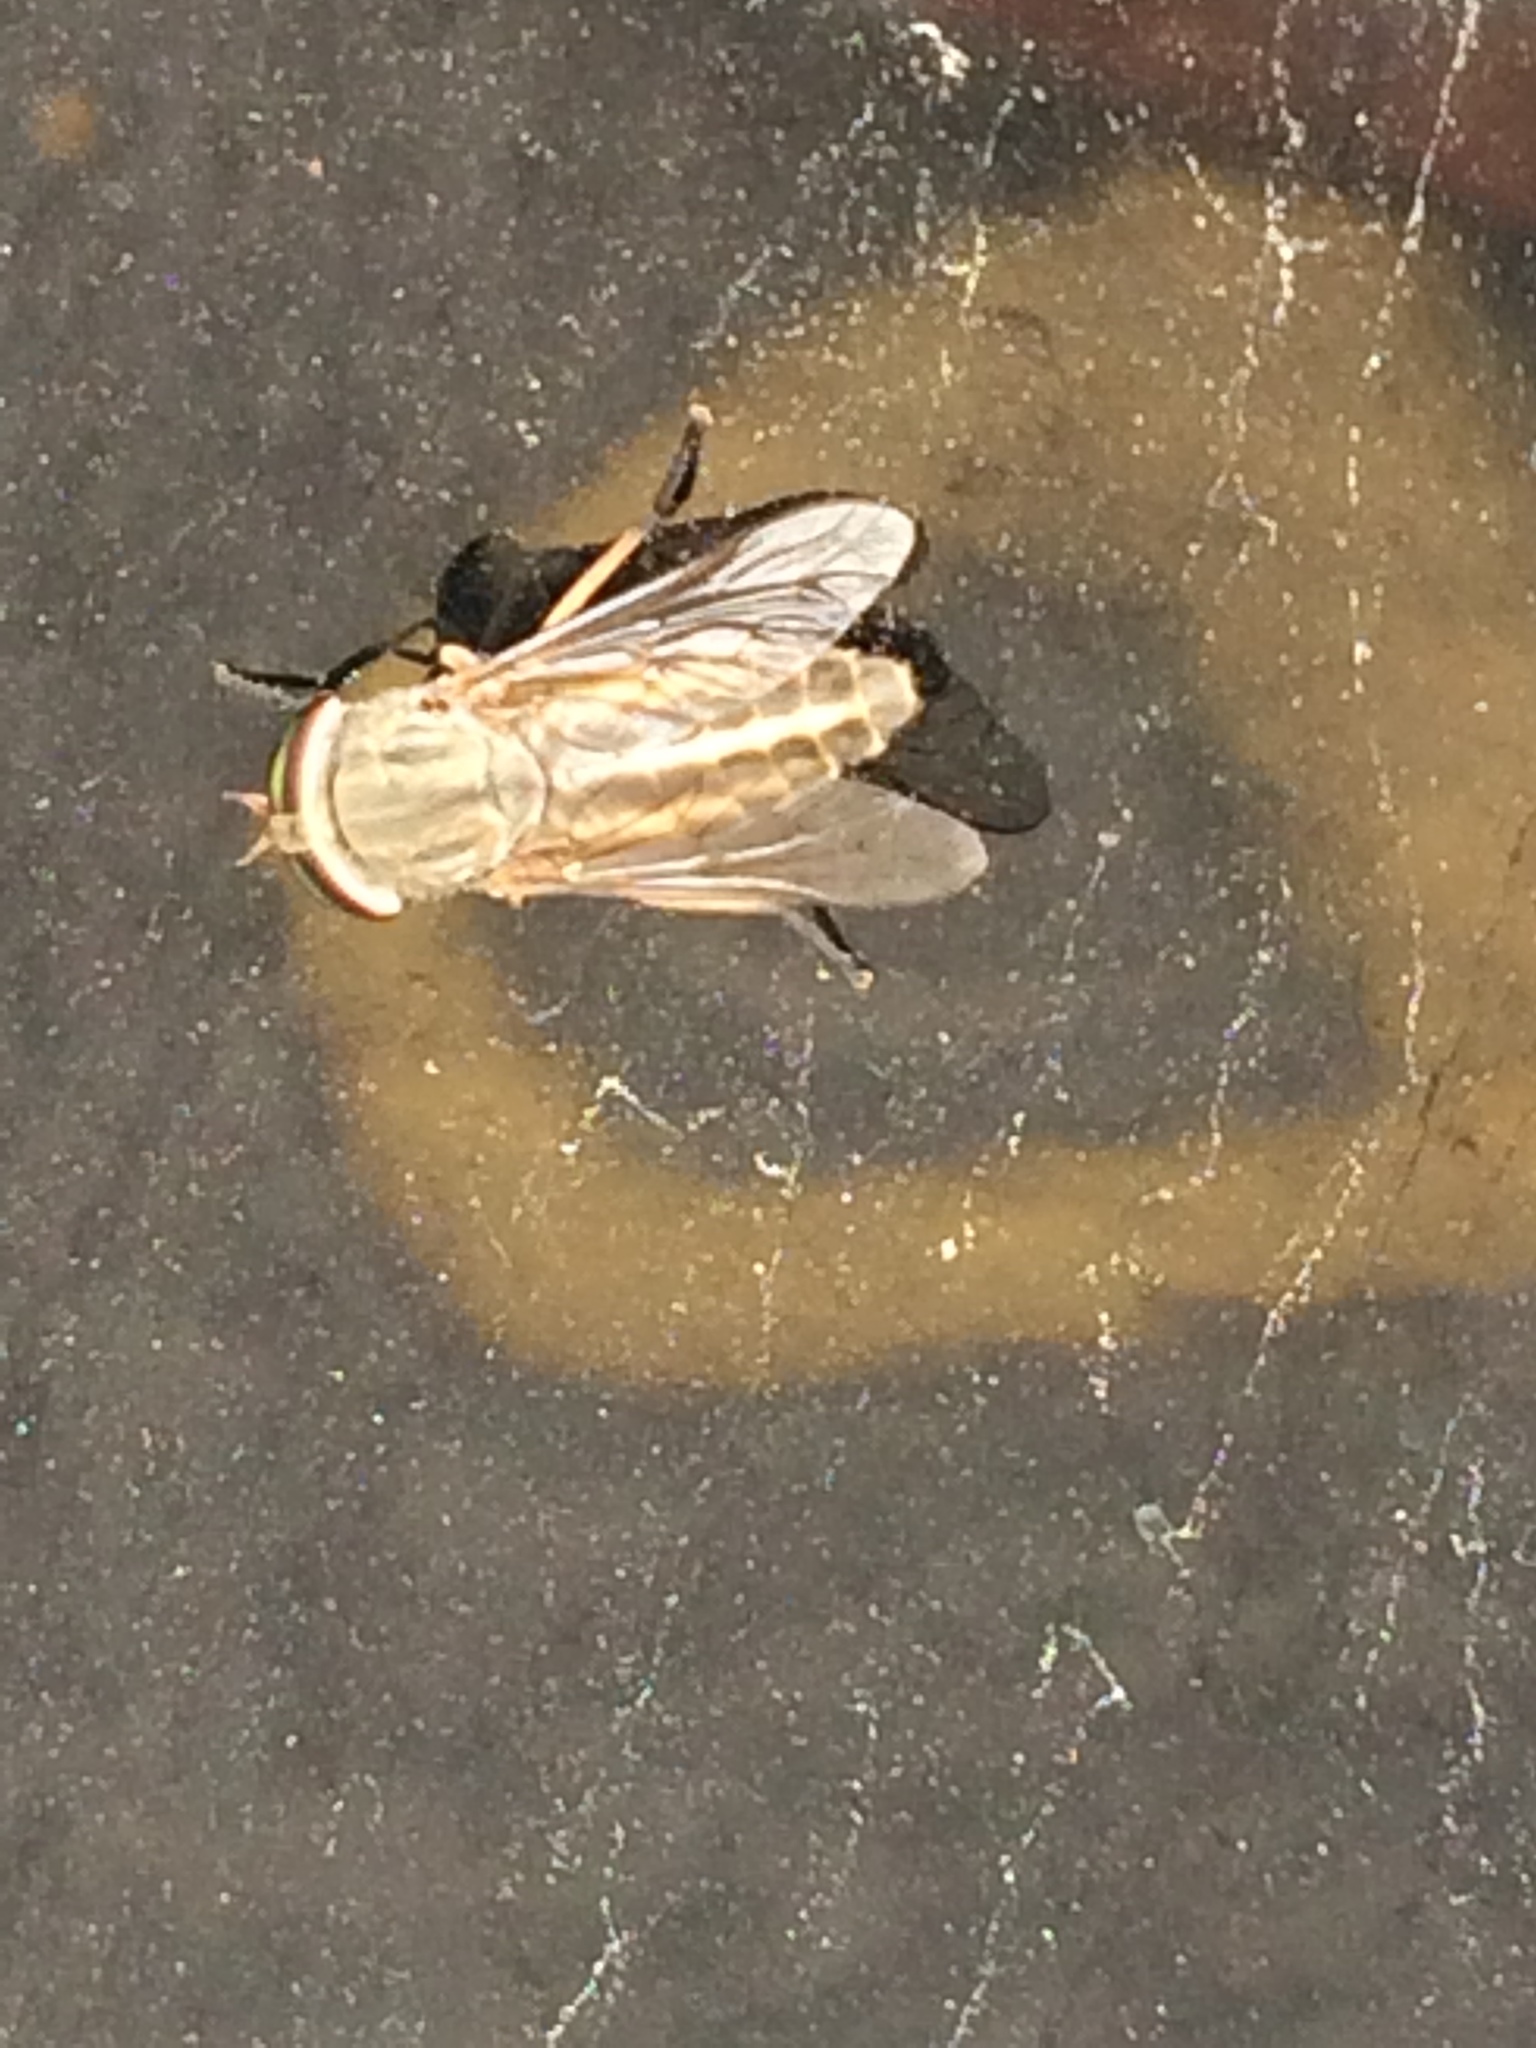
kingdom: Animalia
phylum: Arthropoda
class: Insecta
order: Diptera
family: Tabanidae
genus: Tabanus
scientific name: Tabanus lineola
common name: Striped horse fly
